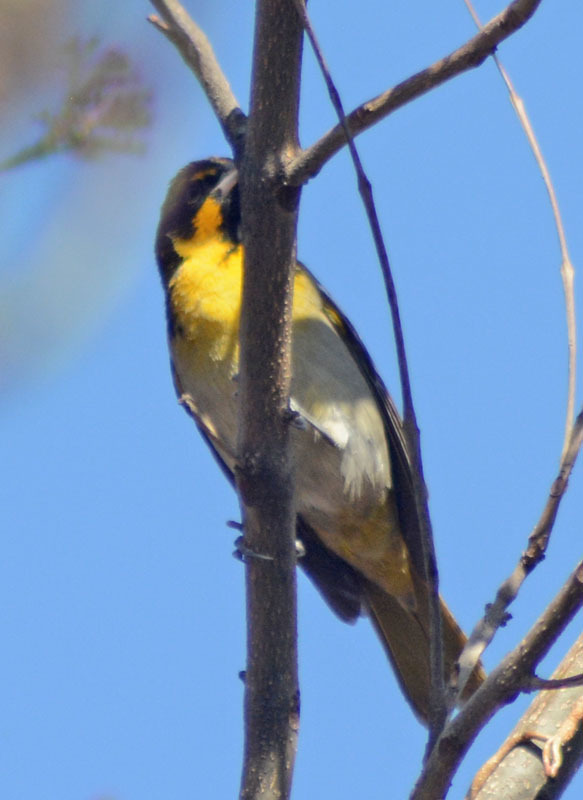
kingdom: Animalia
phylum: Chordata
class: Aves
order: Passeriformes
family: Icteridae
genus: Icterus
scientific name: Icterus abeillei
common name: Black-backed oriole
